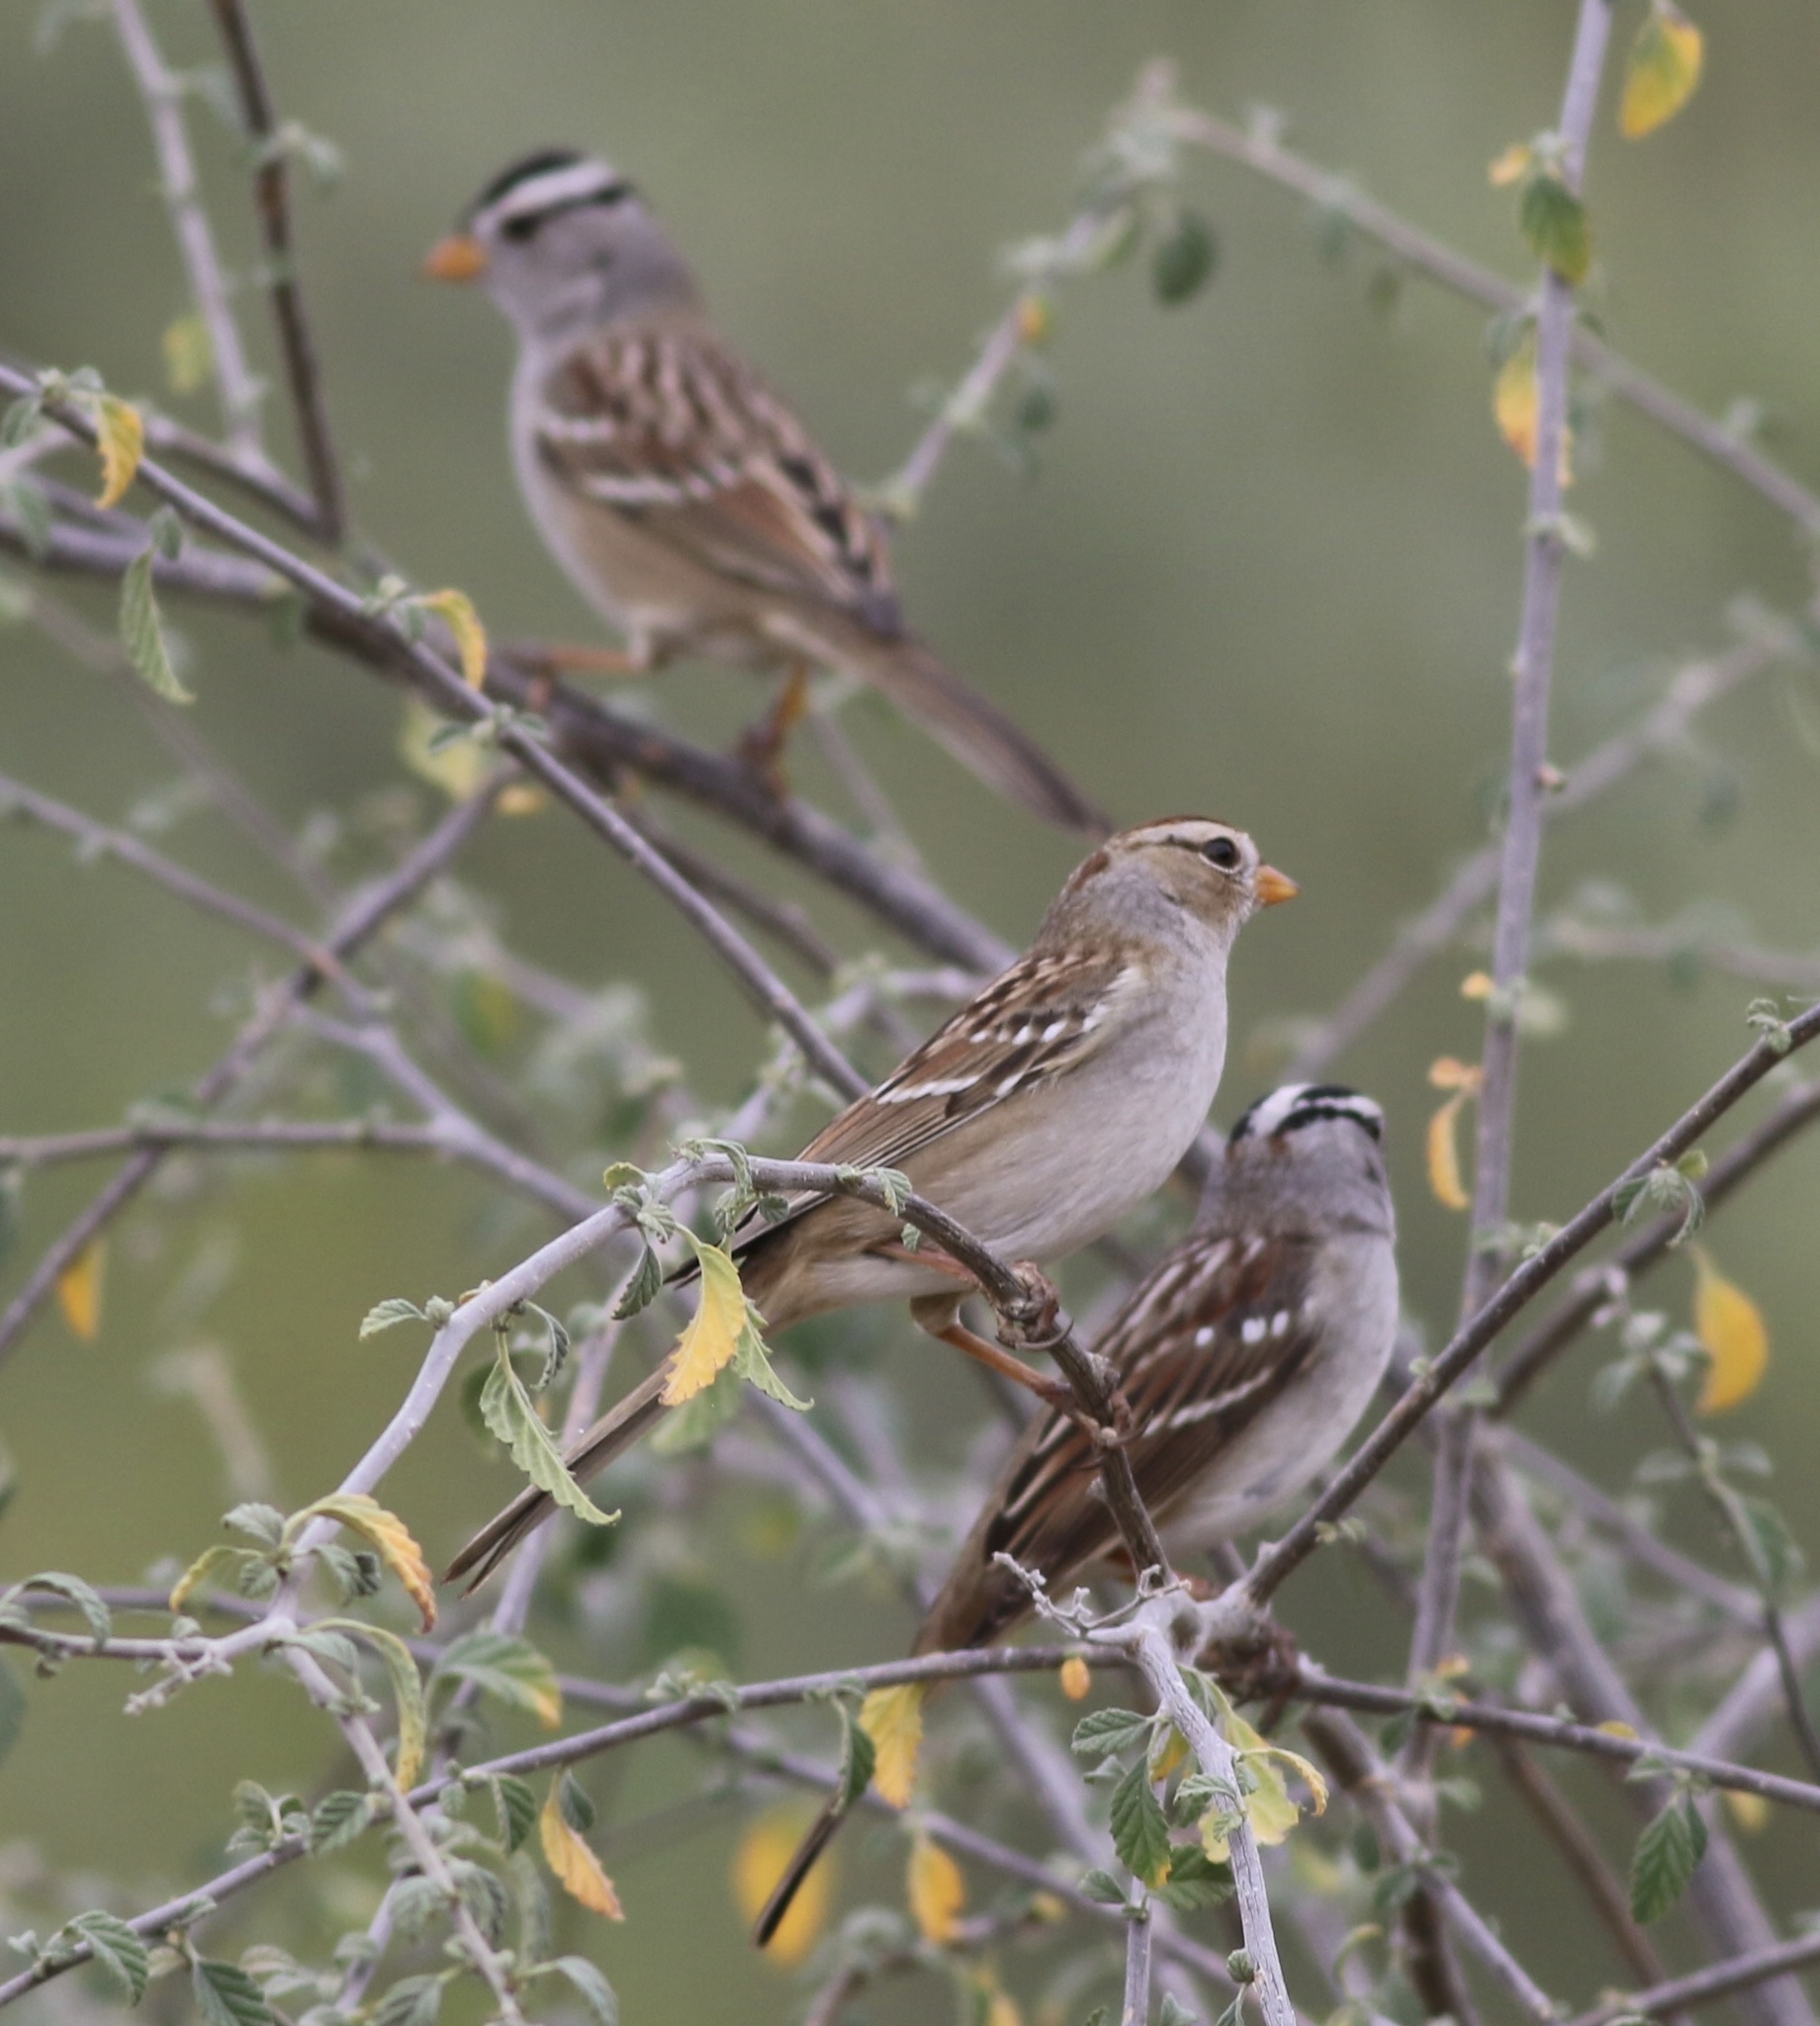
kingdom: Animalia
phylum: Chordata
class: Aves
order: Passeriformes
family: Passerellidae
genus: Zonotrichia
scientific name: Zonotrichia leucophrys
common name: White-crowned sparrow
